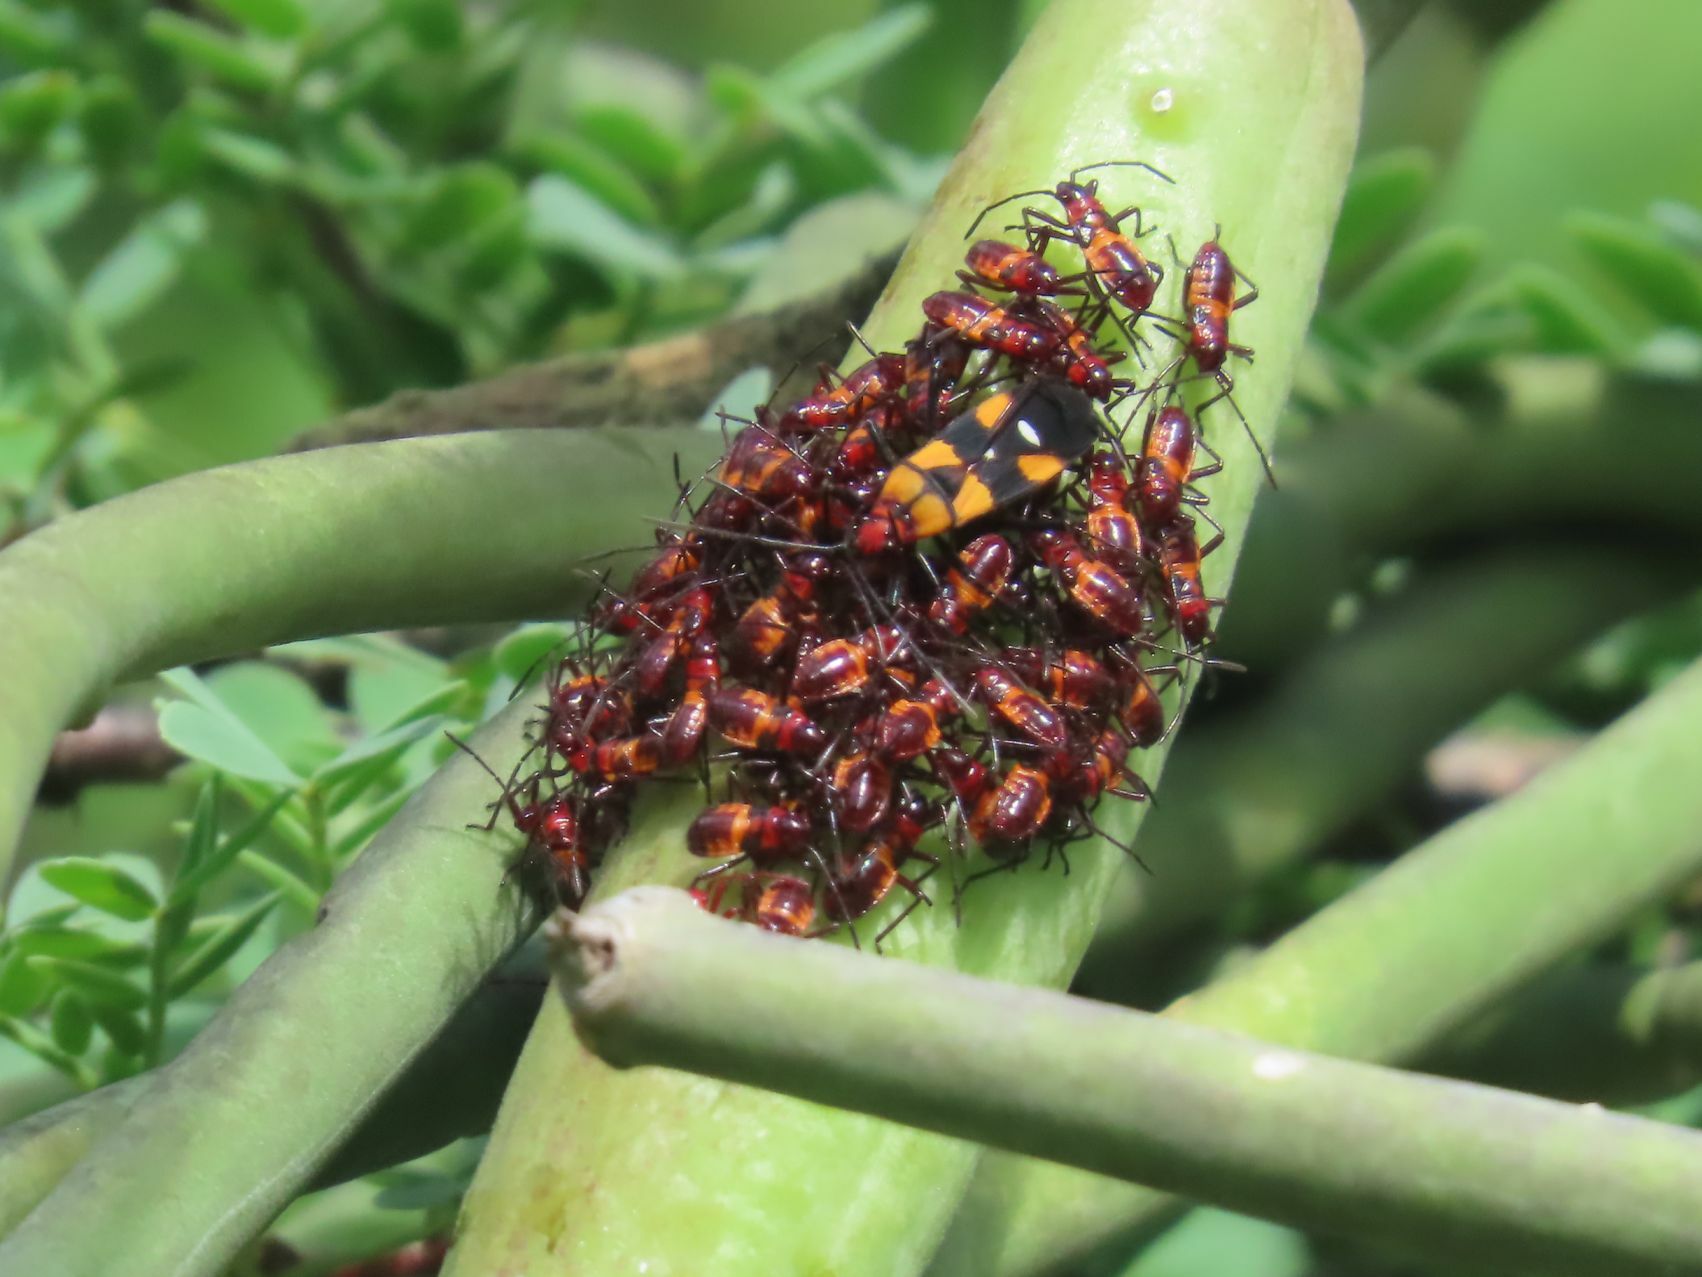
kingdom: Animalia
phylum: Arthropoda
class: Insecta
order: Hemiptera
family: Lygaeidae
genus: Oncopeltus
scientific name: Oncopeltus famelicus
